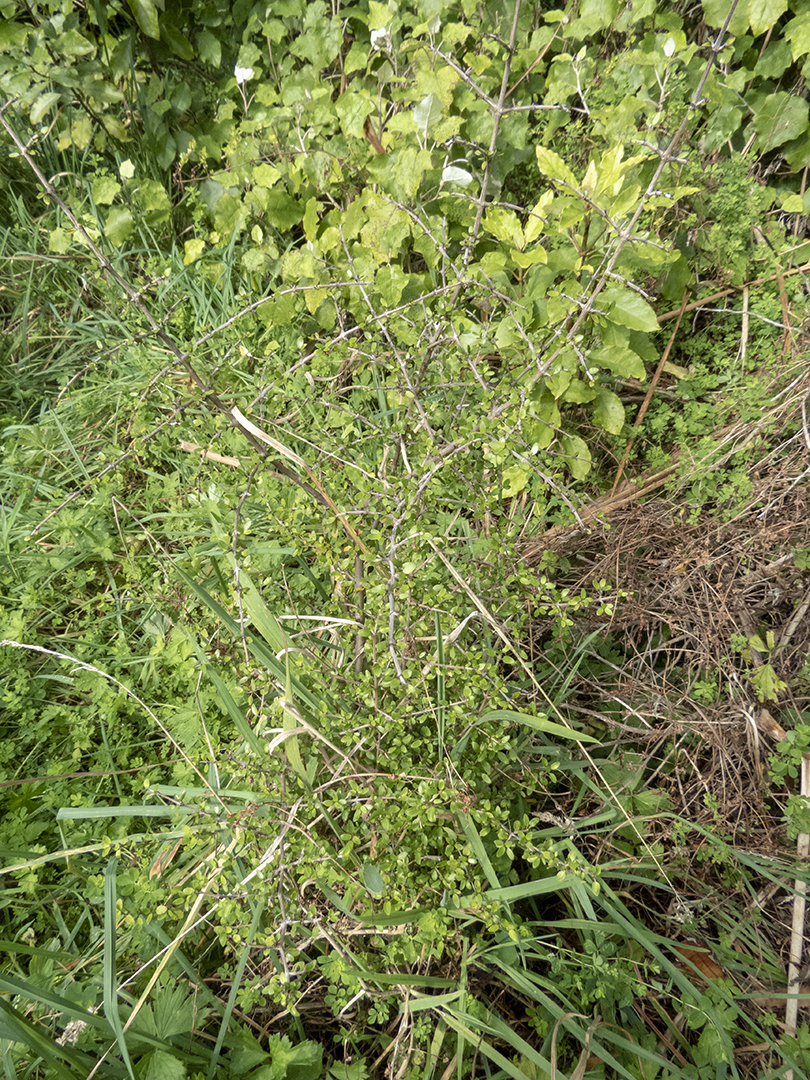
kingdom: Plantae
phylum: Tracheophyta
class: Magnoliopsida
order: Gentianales
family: Rubiaceae
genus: Coprosma
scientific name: Coprosma propinqua
